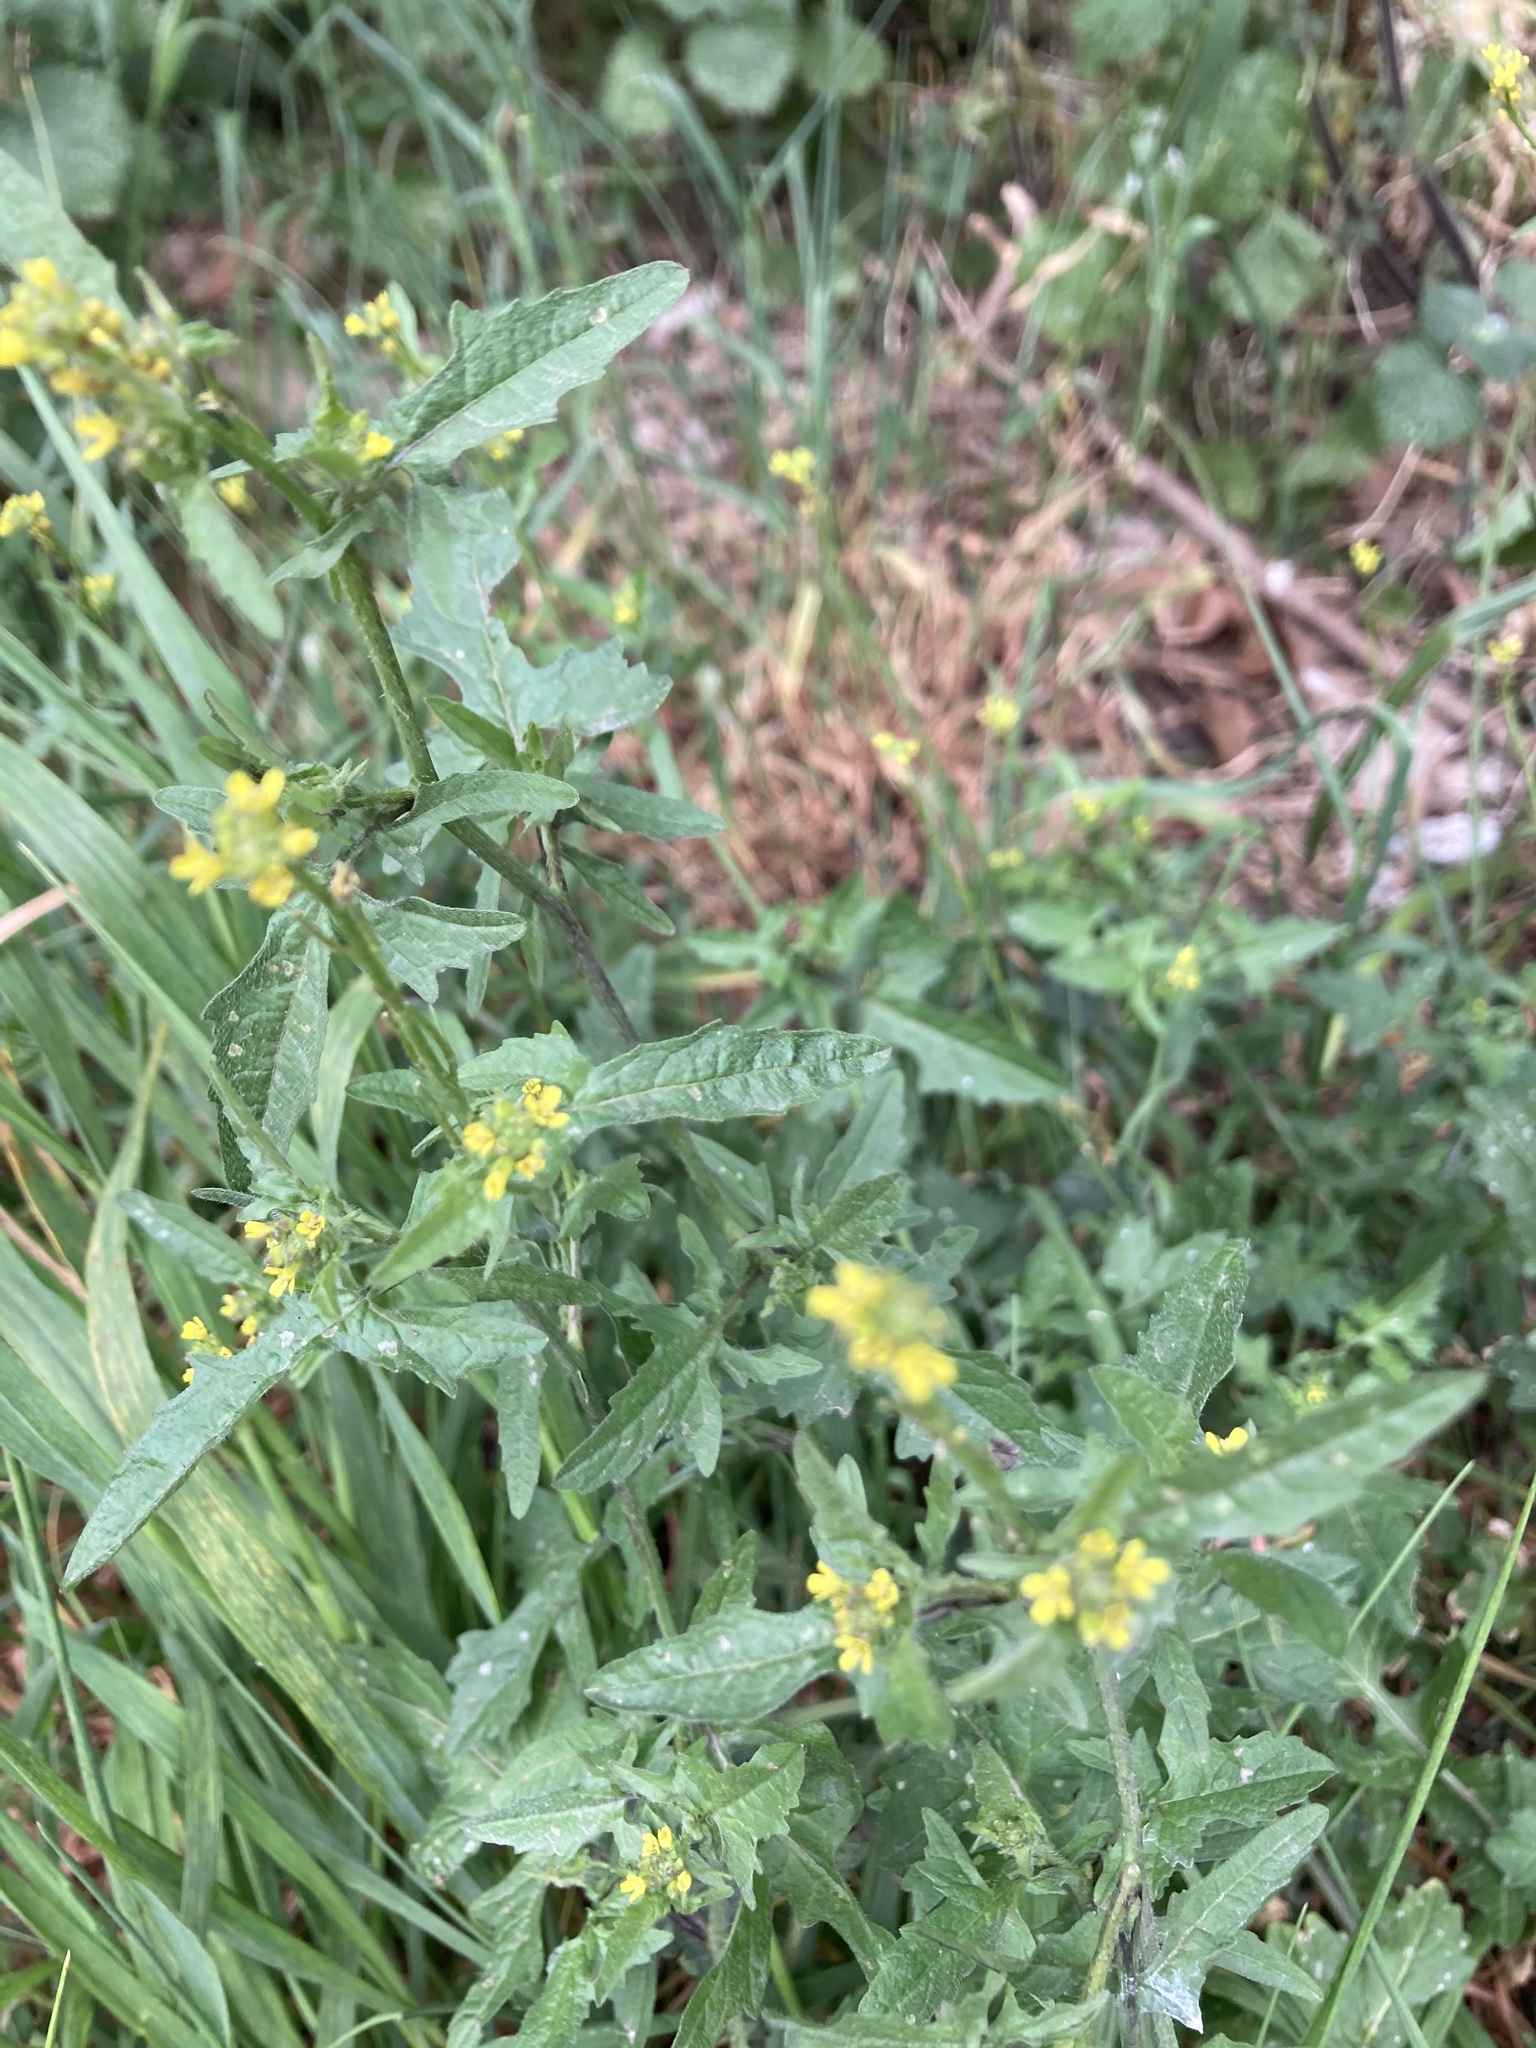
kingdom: Plantae
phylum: Tracheophyta
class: Magnoliopsida
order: Brassicales
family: Brassicaceae
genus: Sisymbrium
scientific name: Sisymbrium officinale
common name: Hedge mustard
